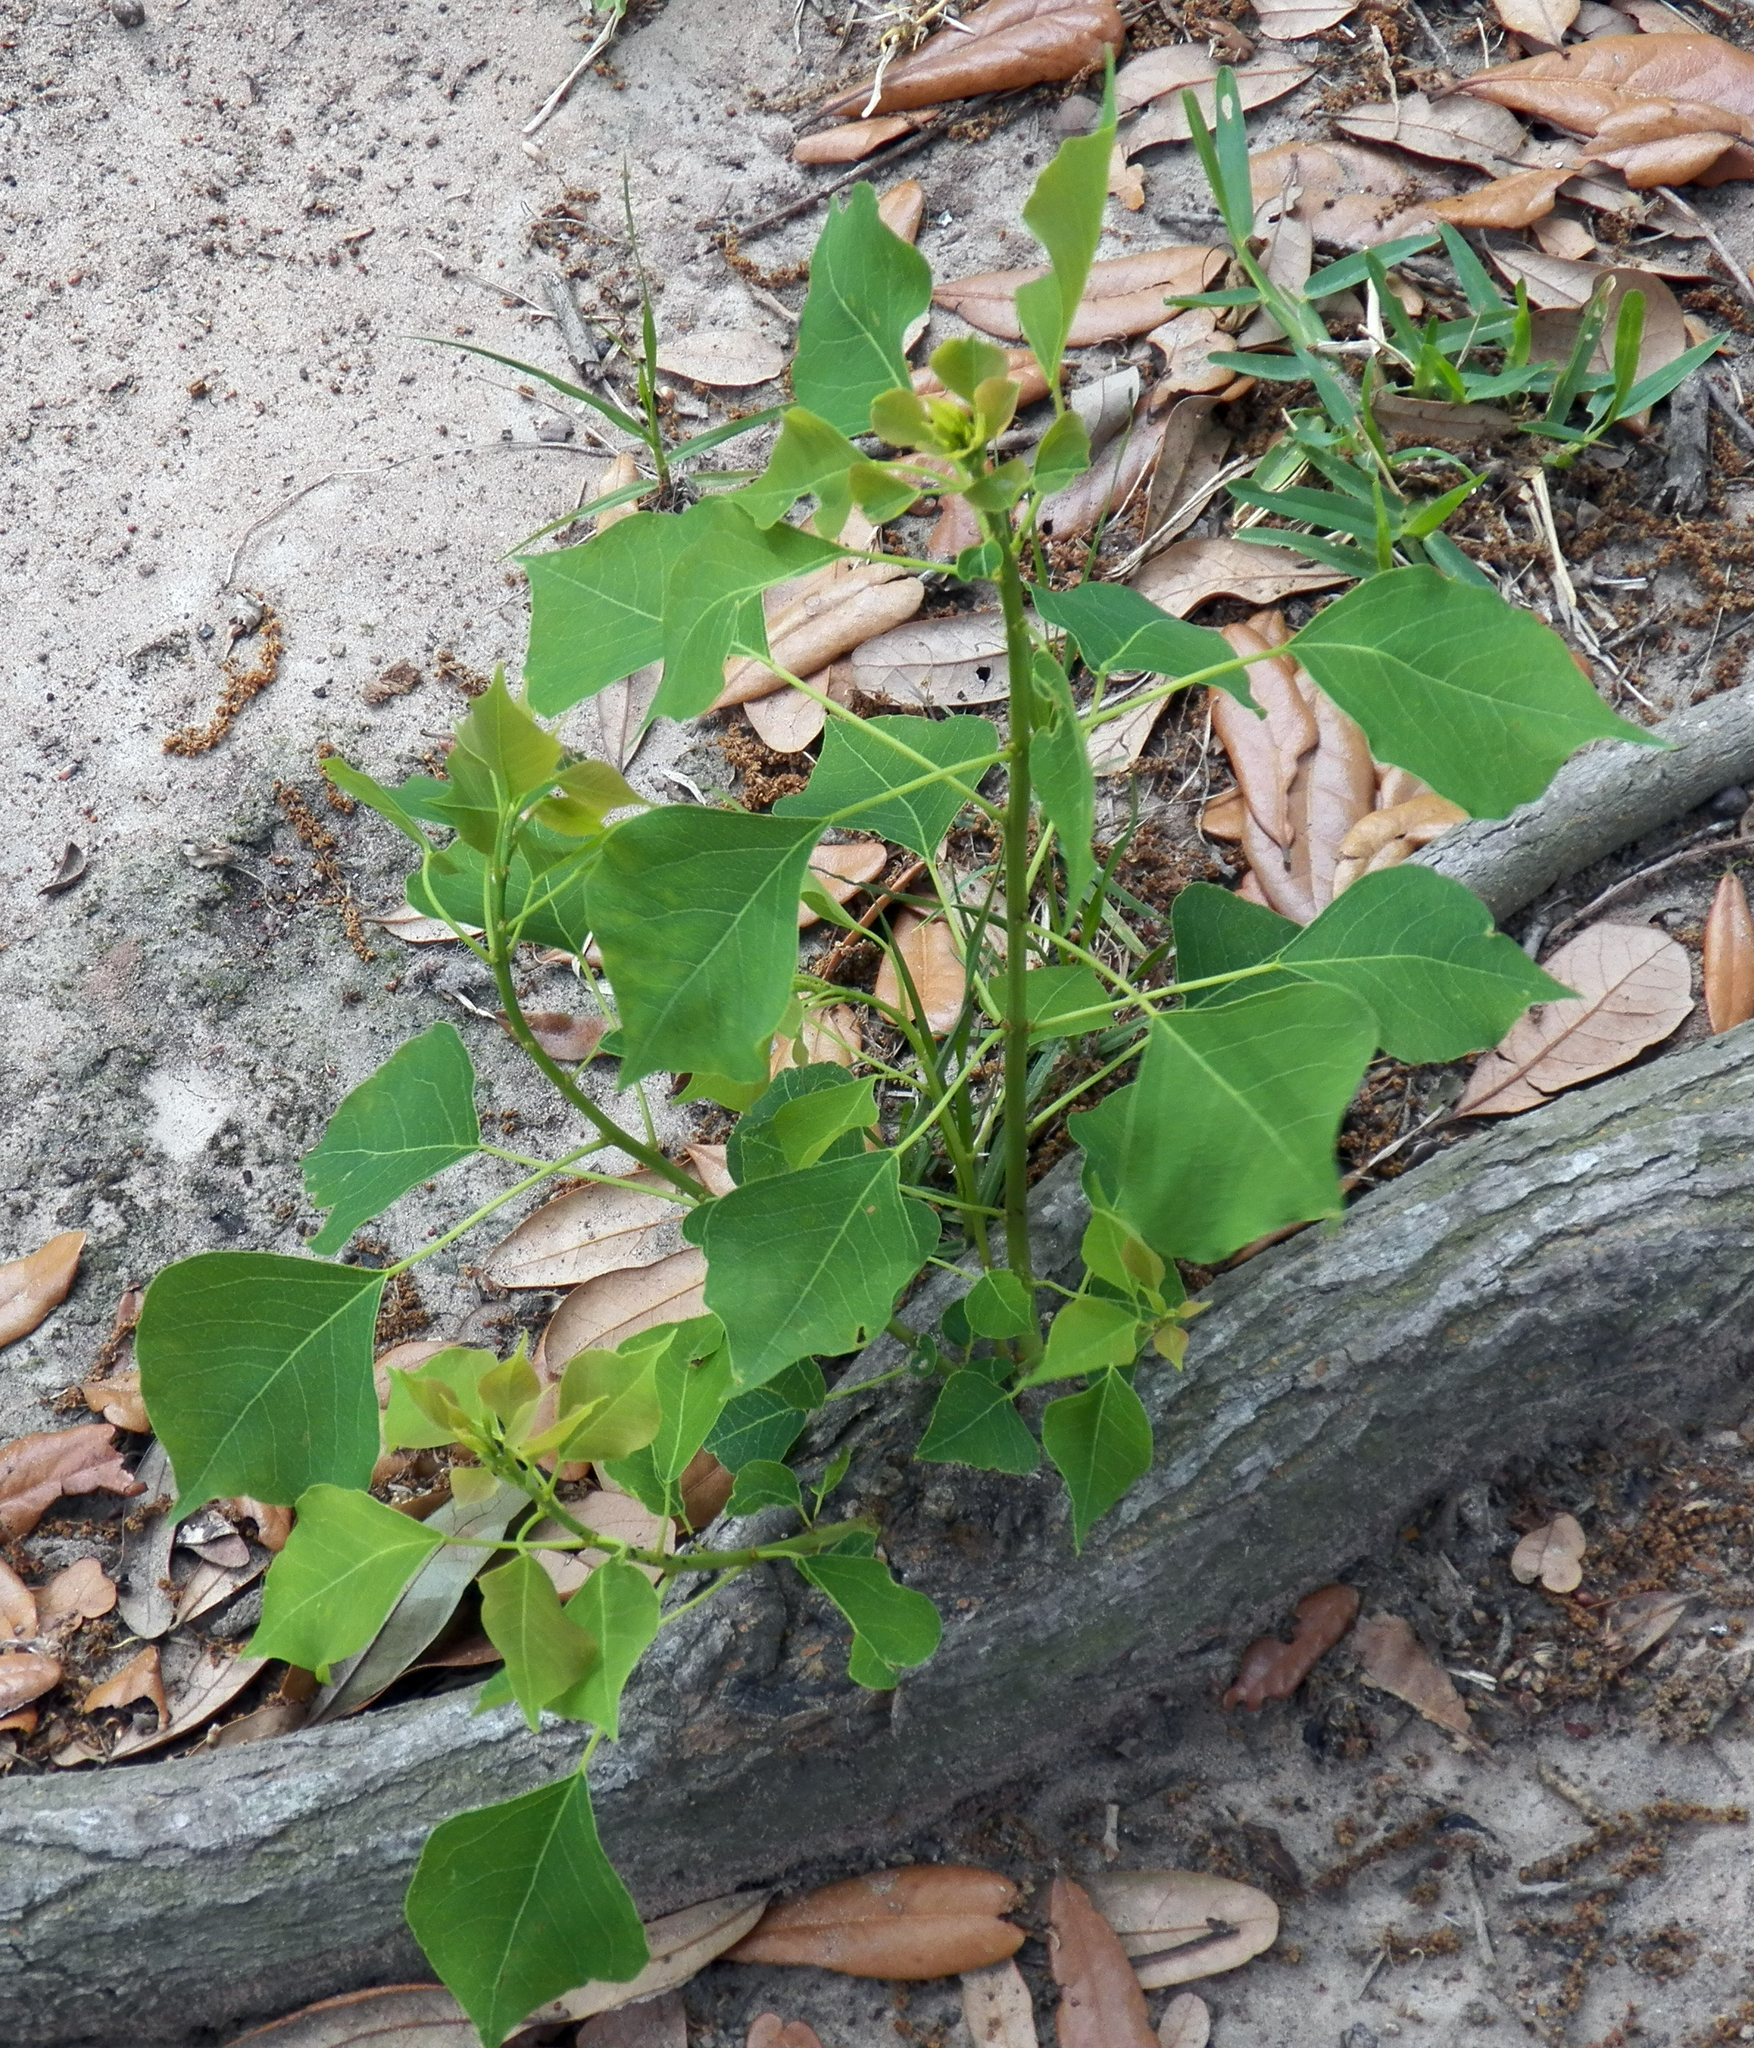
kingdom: Plantae
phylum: Tracheophyta
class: Magnoliopsida
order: Malpighiales
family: Euphorbiaceae
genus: Triadica
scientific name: Triadica sebifera
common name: Chinese tallow
